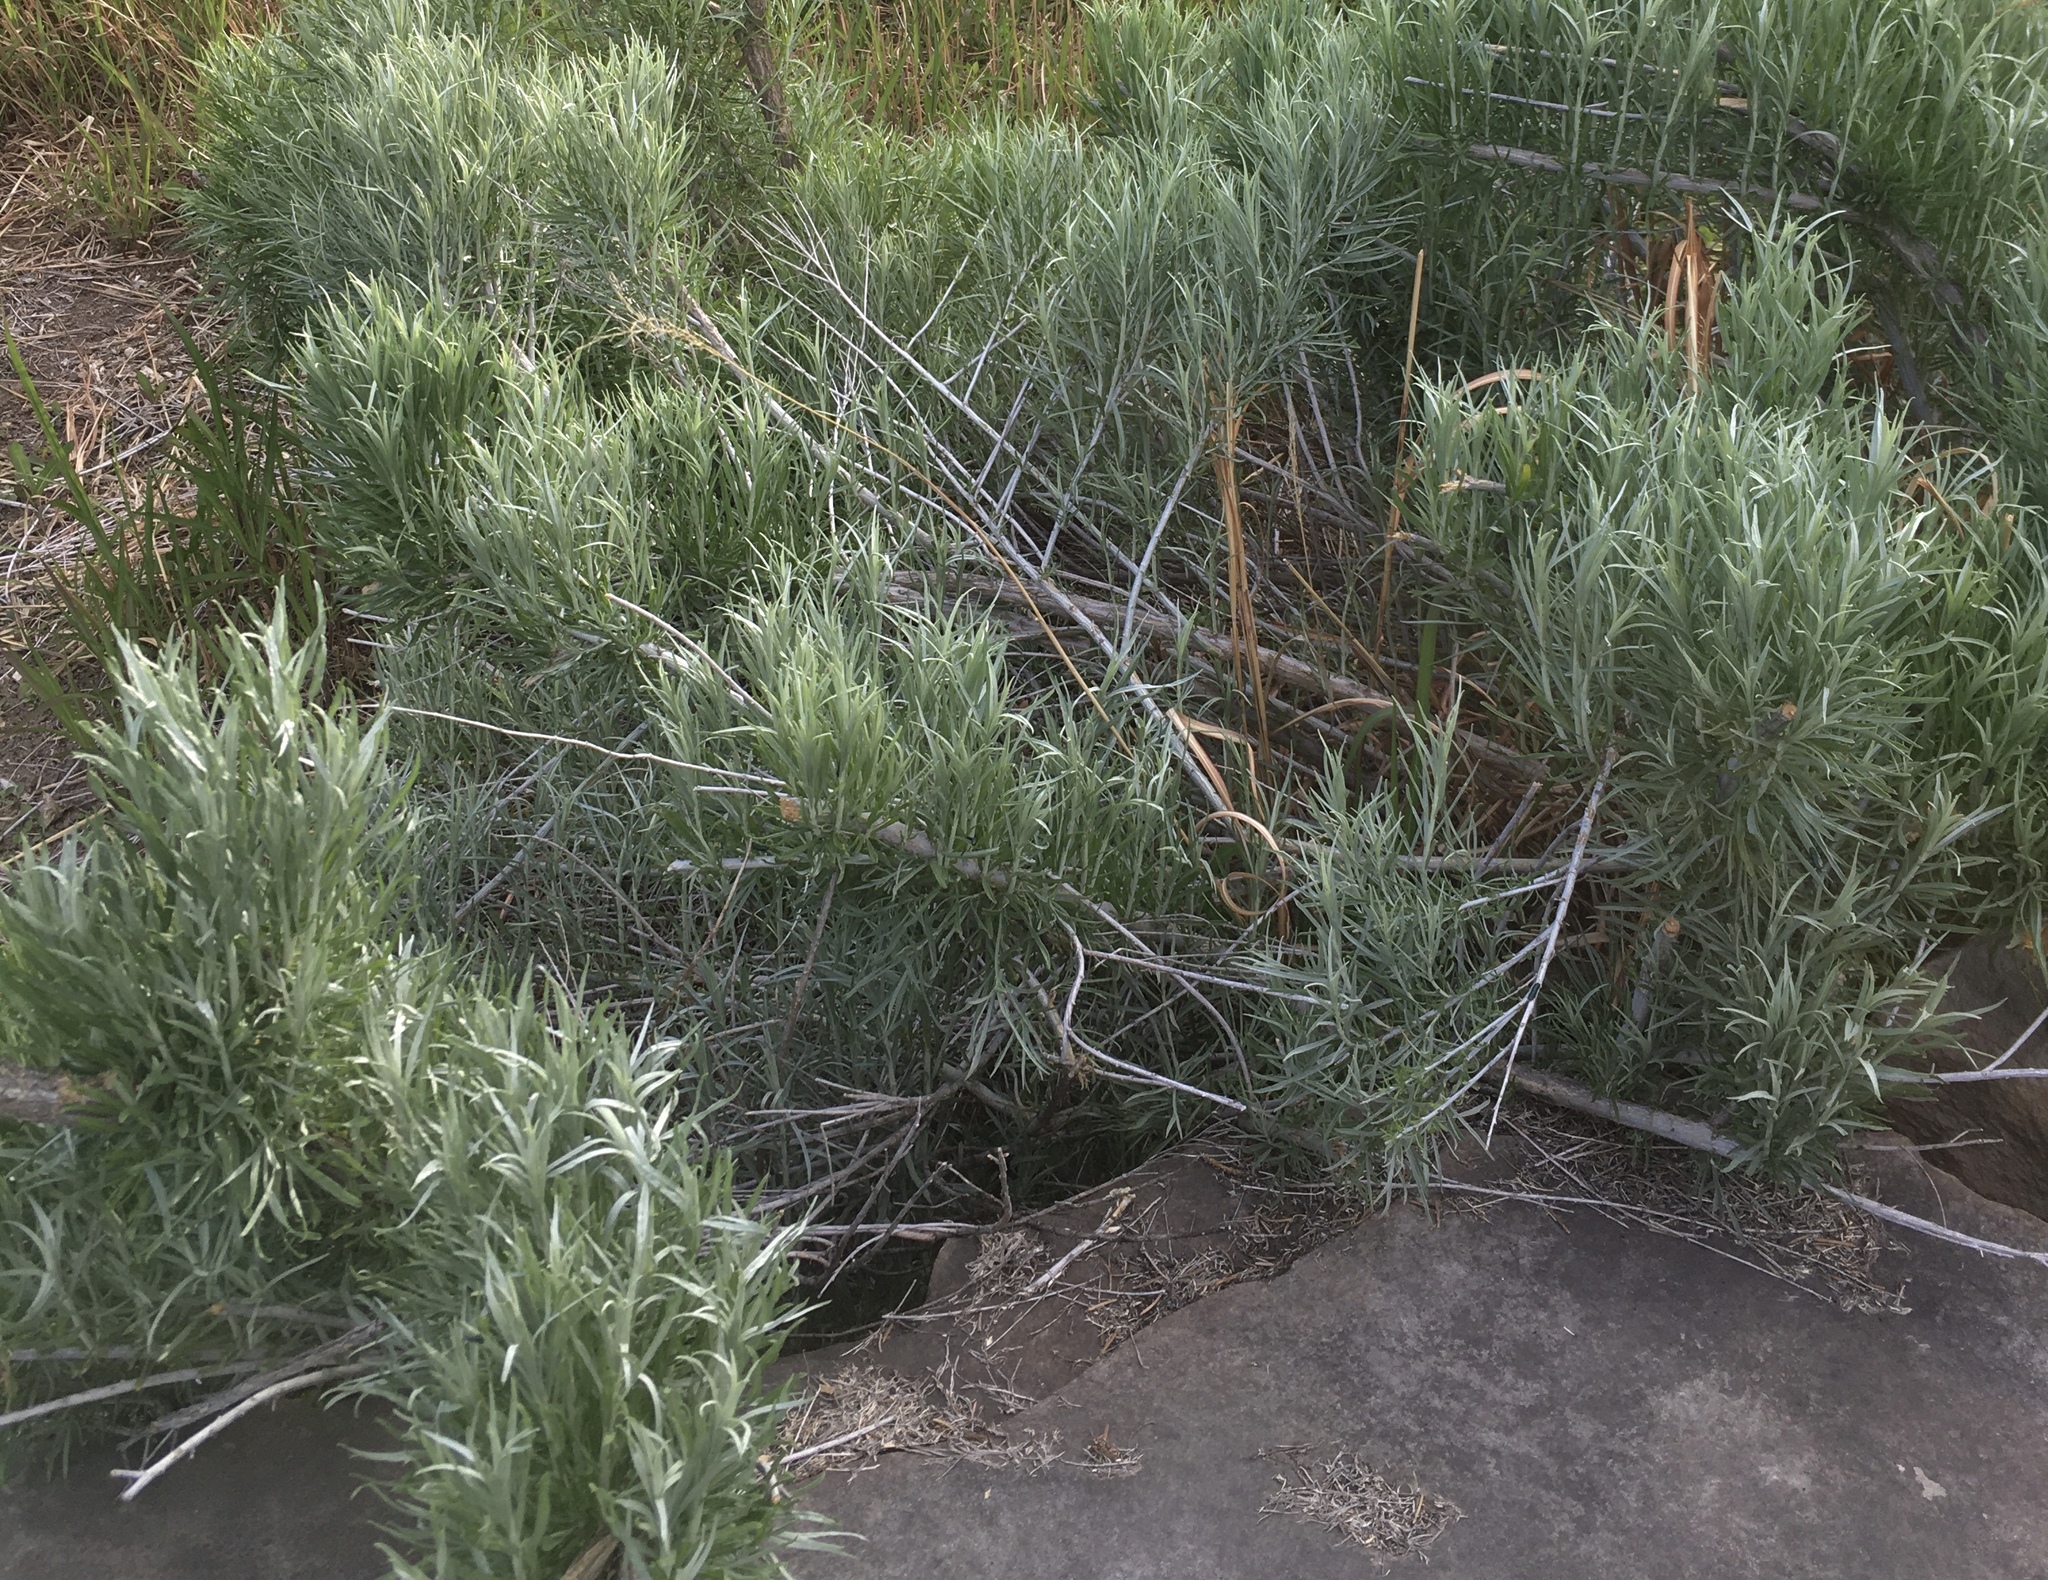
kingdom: Plantae
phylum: Tracheophyta
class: Magnoliopsida
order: Asterales
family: Asteraceae
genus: Ericameria
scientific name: Ericameria nauseosa
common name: Rubber rabbitbrush
